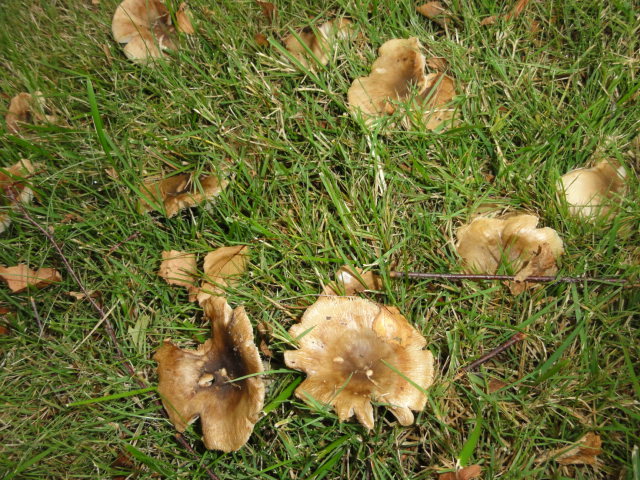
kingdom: Fungi
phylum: Basidiomycota
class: Agaricomycetes
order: Russulales
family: Russulaceae
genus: Russula
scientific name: Russula
